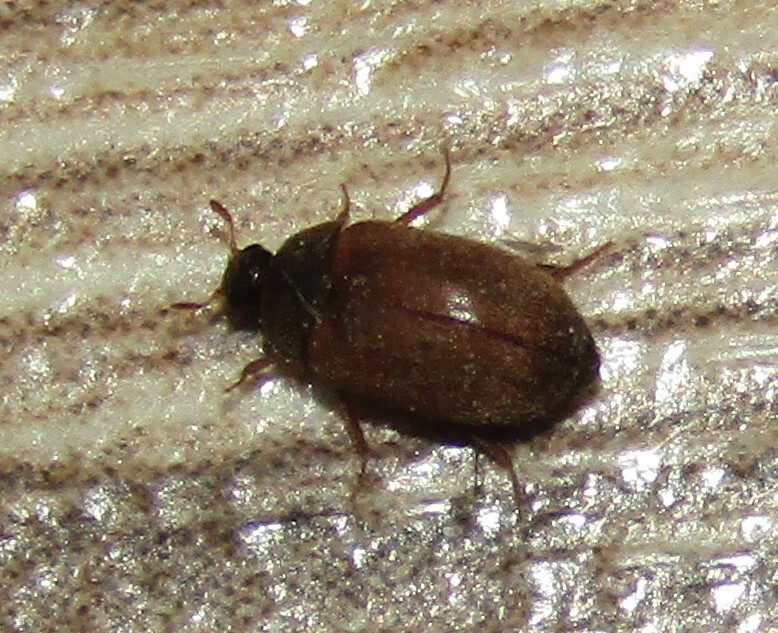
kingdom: Animalia
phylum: Arthropoda
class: Insecta
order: Coleoptera
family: Dermestidae
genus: Attagenus
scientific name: Attagenus smirnovi
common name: Brown carpet beetle
